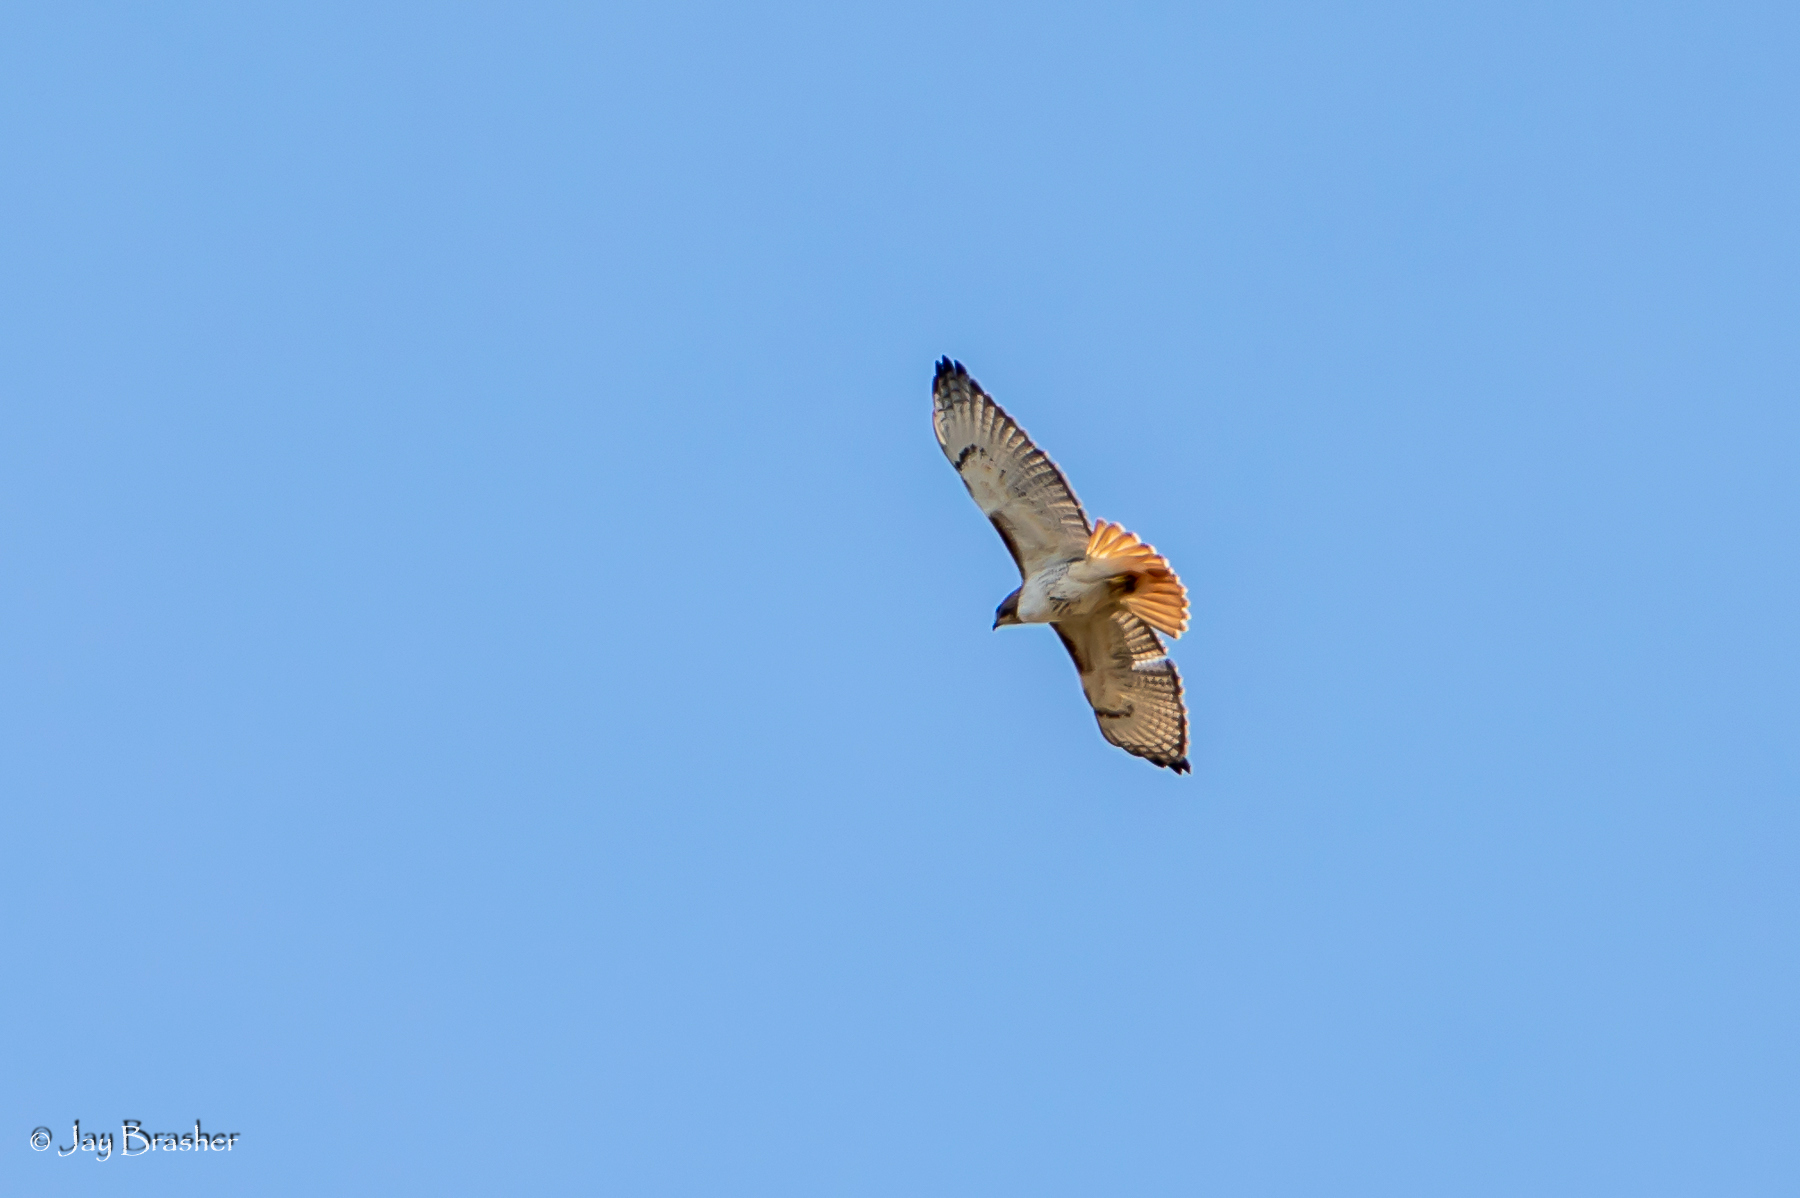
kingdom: Animalia
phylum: Chordata
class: Aves
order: Accipitriformes
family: Accipitridae
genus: Buteo
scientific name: Buteo jamaicensis
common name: Red-tailed hawk
